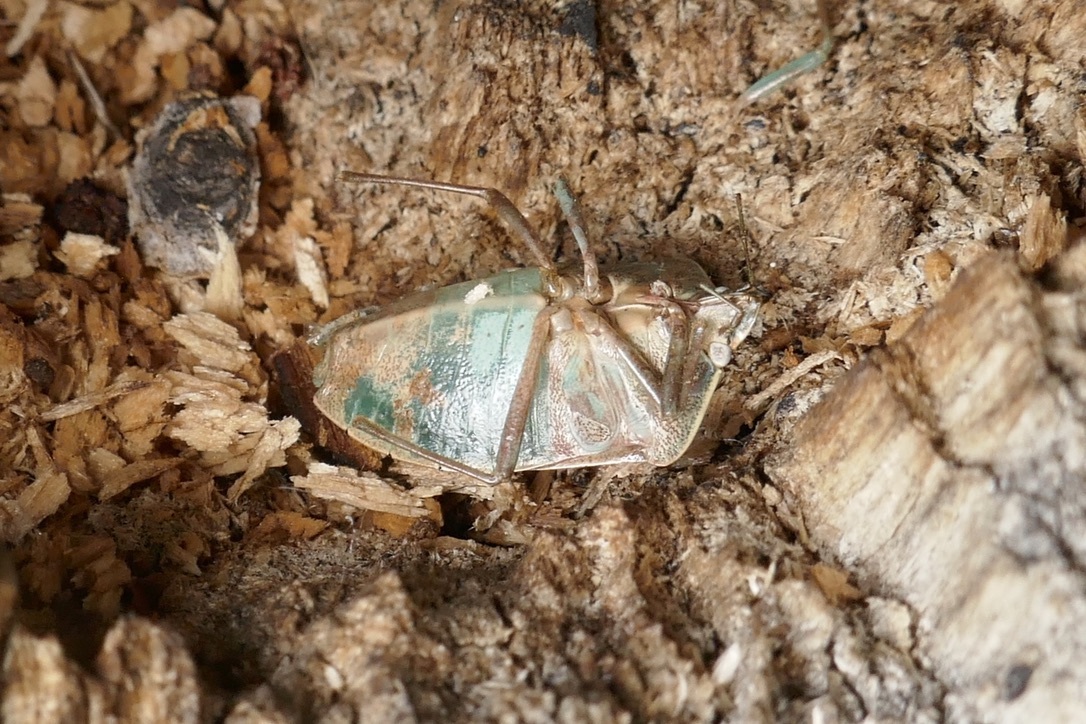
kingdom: Animalia
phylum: Arthropoda
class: Insecta
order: Hemiptera
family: Pentatomidae
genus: Nezara
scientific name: Nezara viridula
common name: Southern green stink bug
